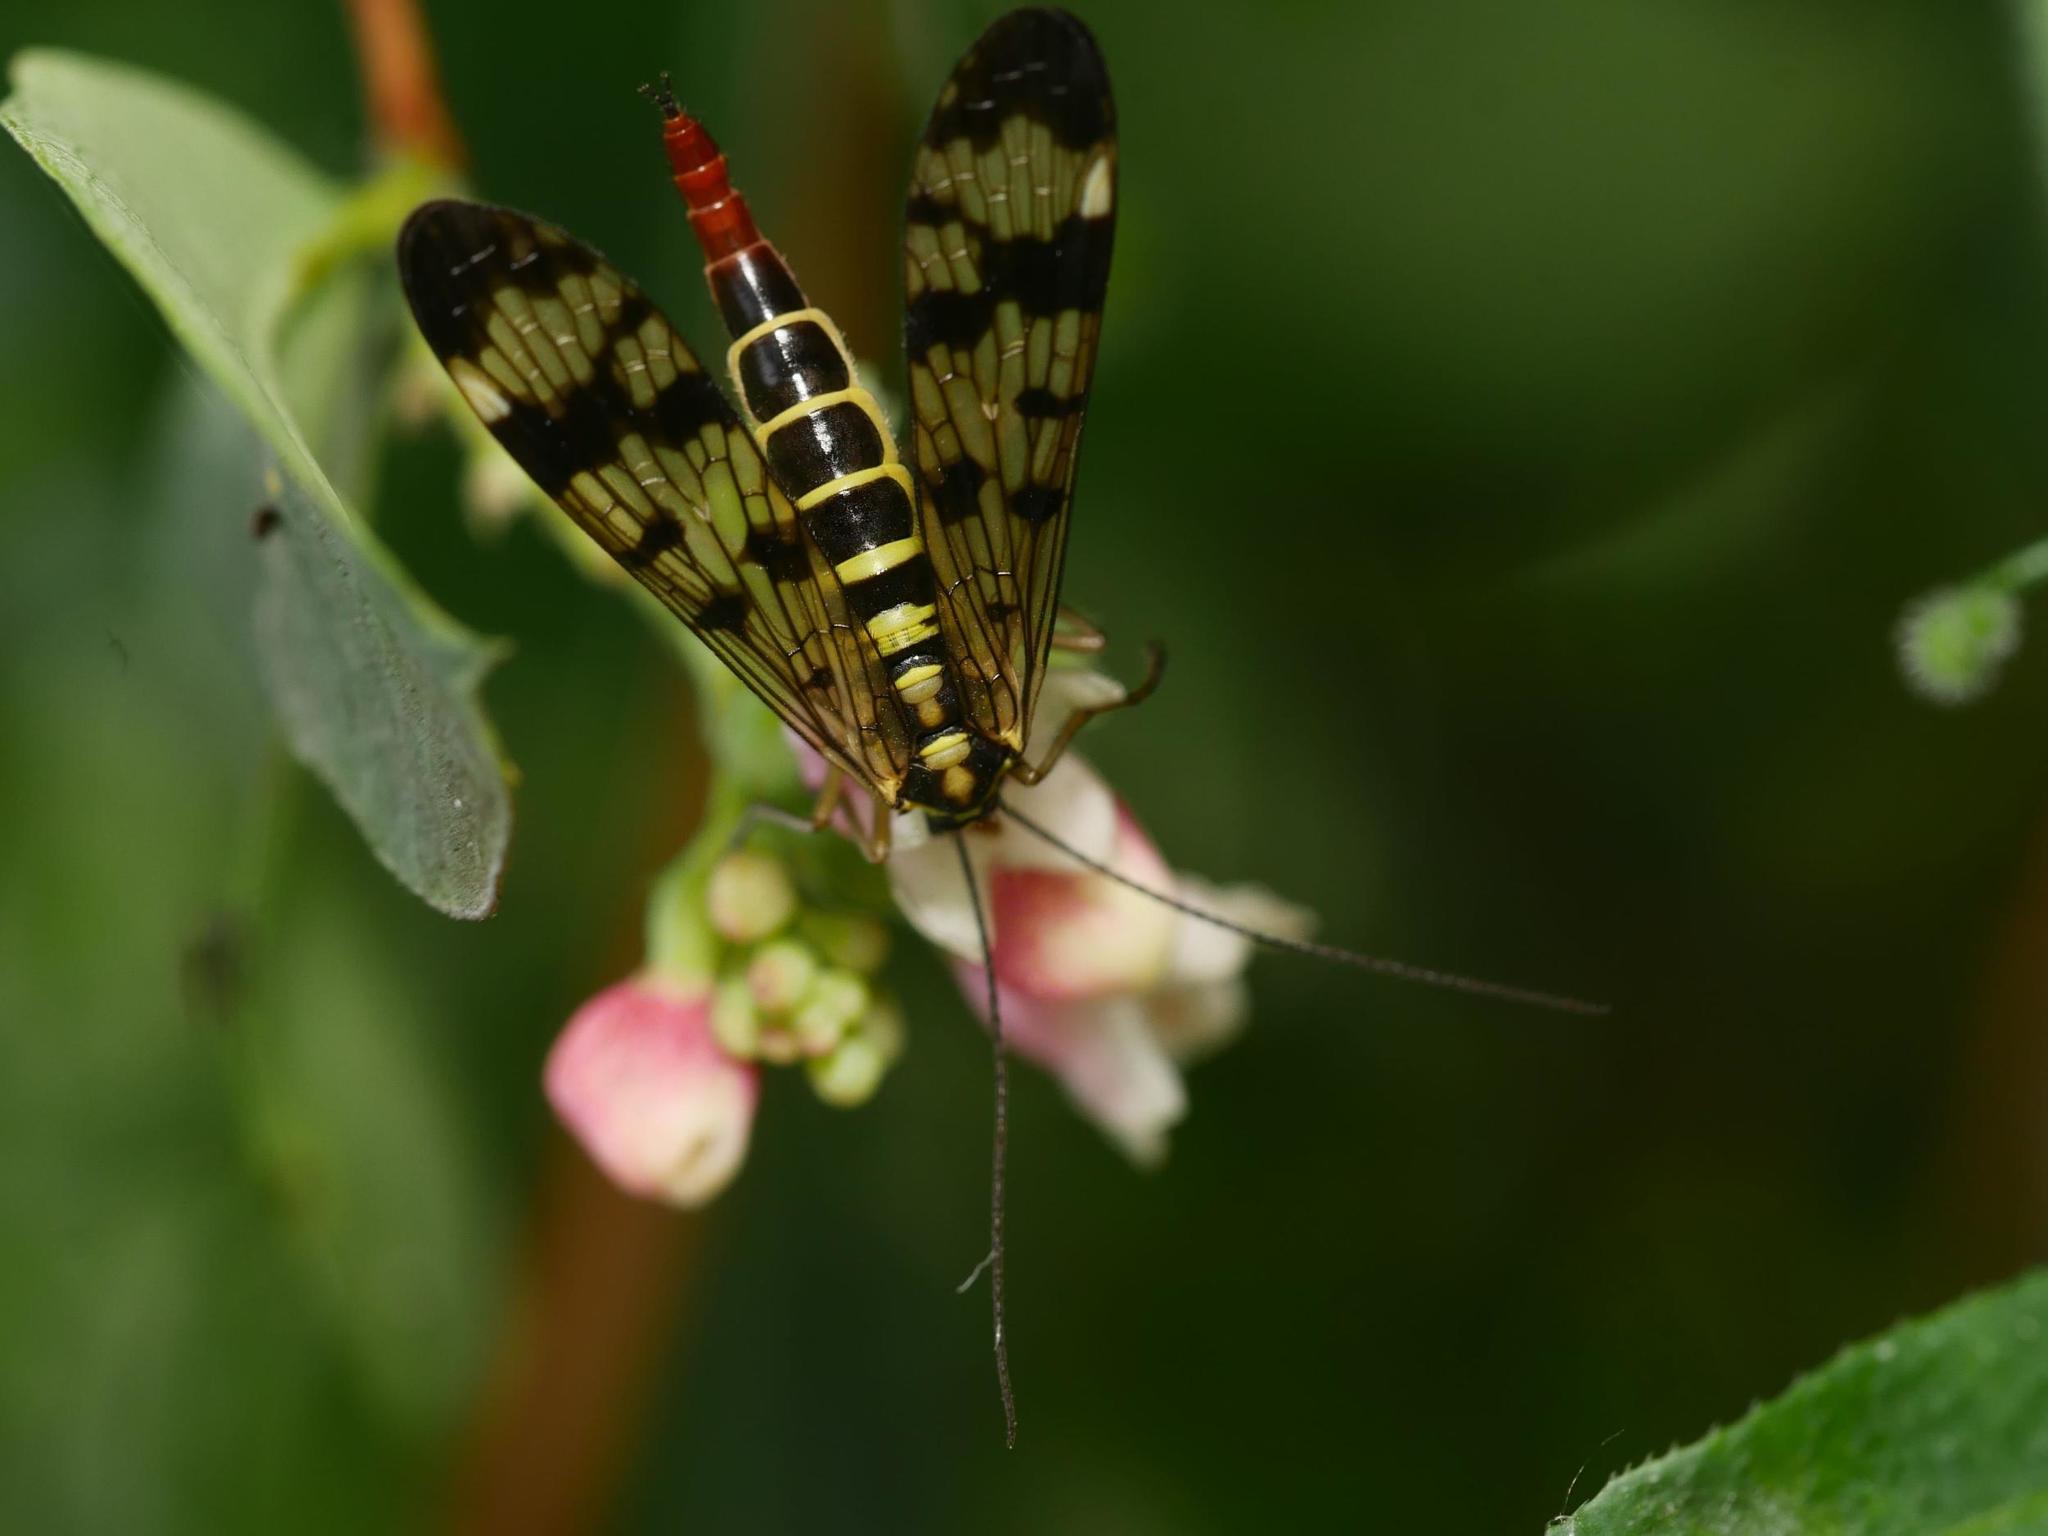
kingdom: Animalia
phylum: Arthropoda
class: Insecta
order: Mecoptera
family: Panorpidae
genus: Panorpa
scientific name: Panorpa communis
